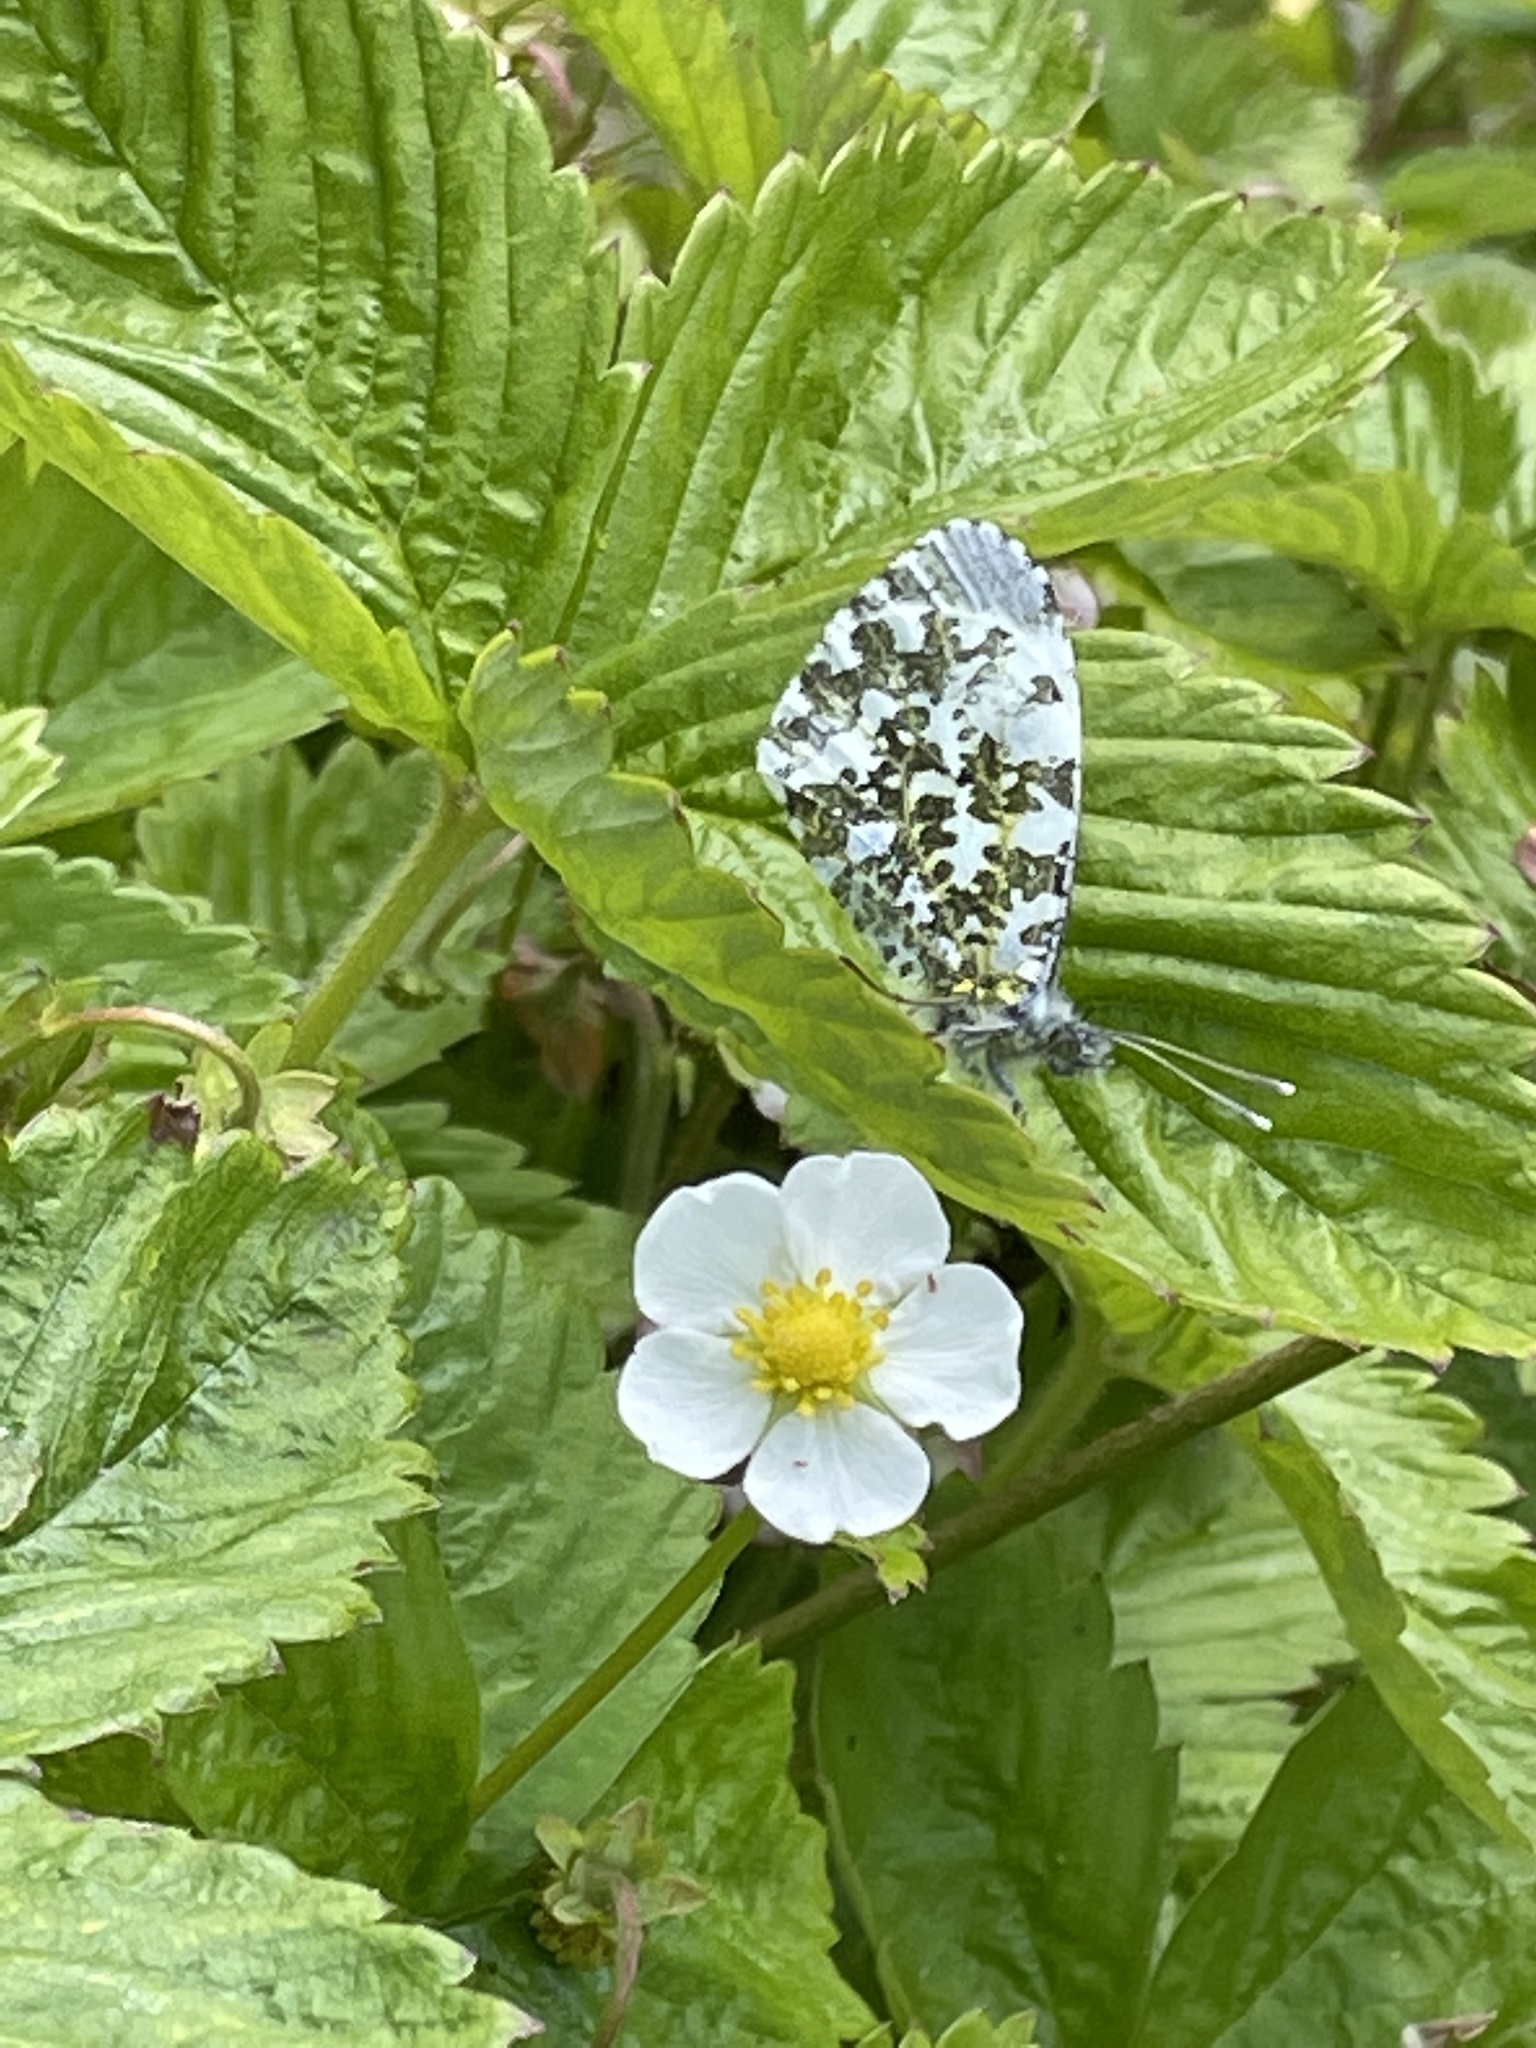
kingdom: Animalia
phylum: Arthropoda
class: Insecta
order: Lepidoptera
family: Pieridae
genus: Anthocharis
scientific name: Anthocharis cardamines
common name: Orange-tip
